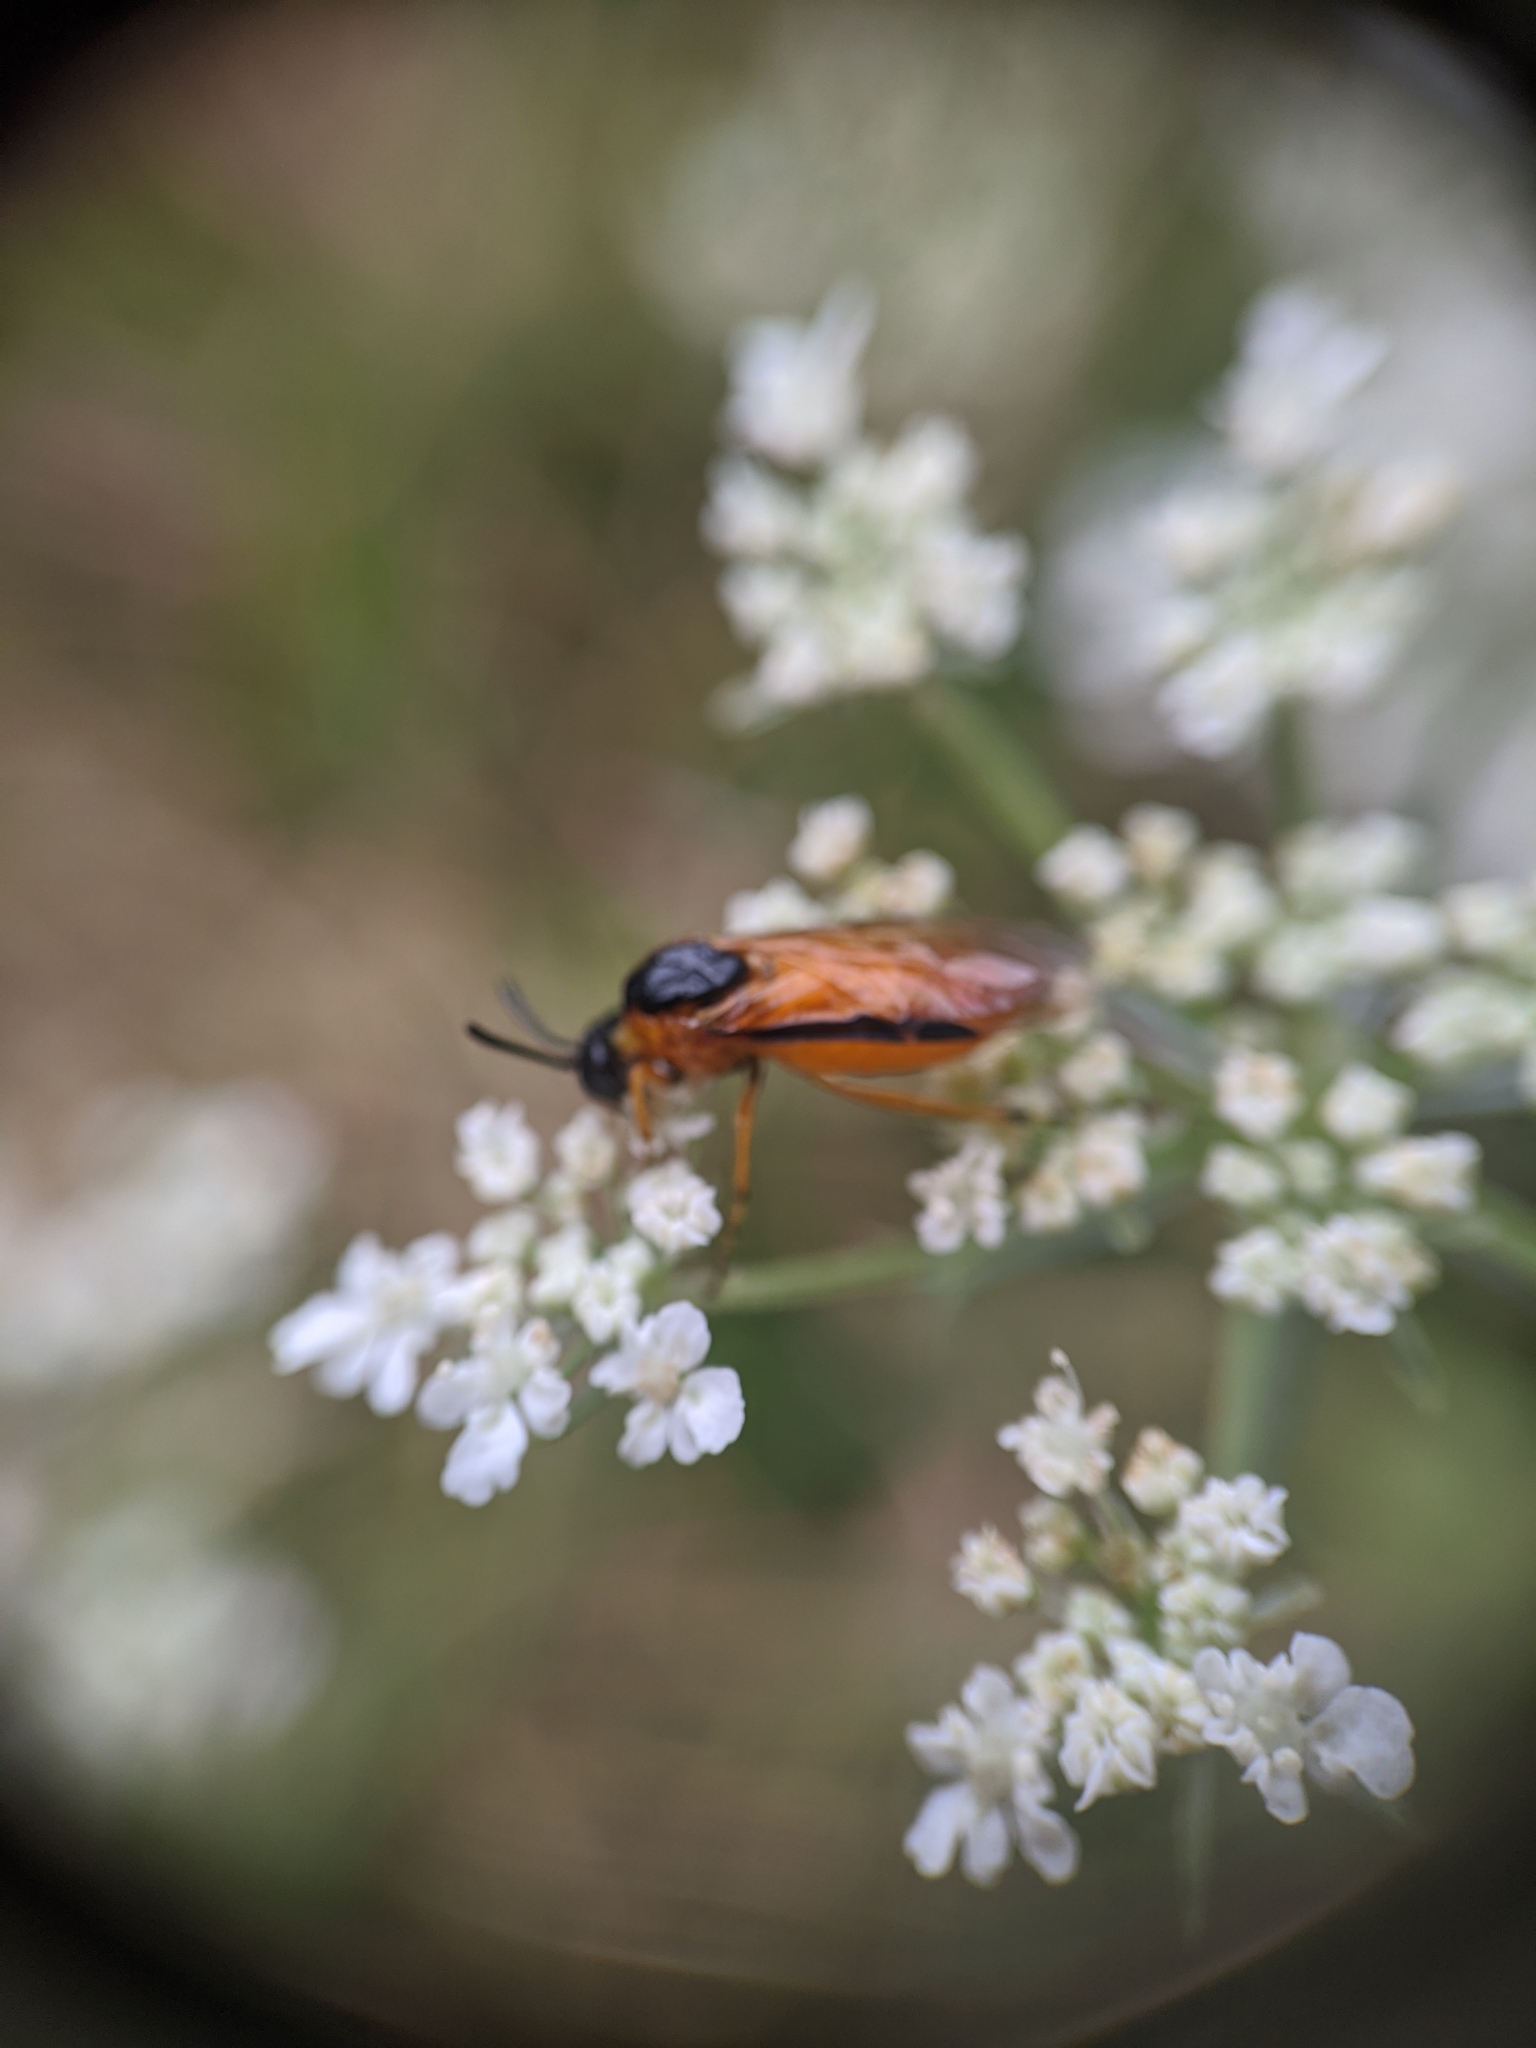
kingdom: Animalia
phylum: Arthropoda
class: Insecta
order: Hymenoptera
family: Argidae
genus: Arge
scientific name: Arge ochropus
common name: Argid sawfly
